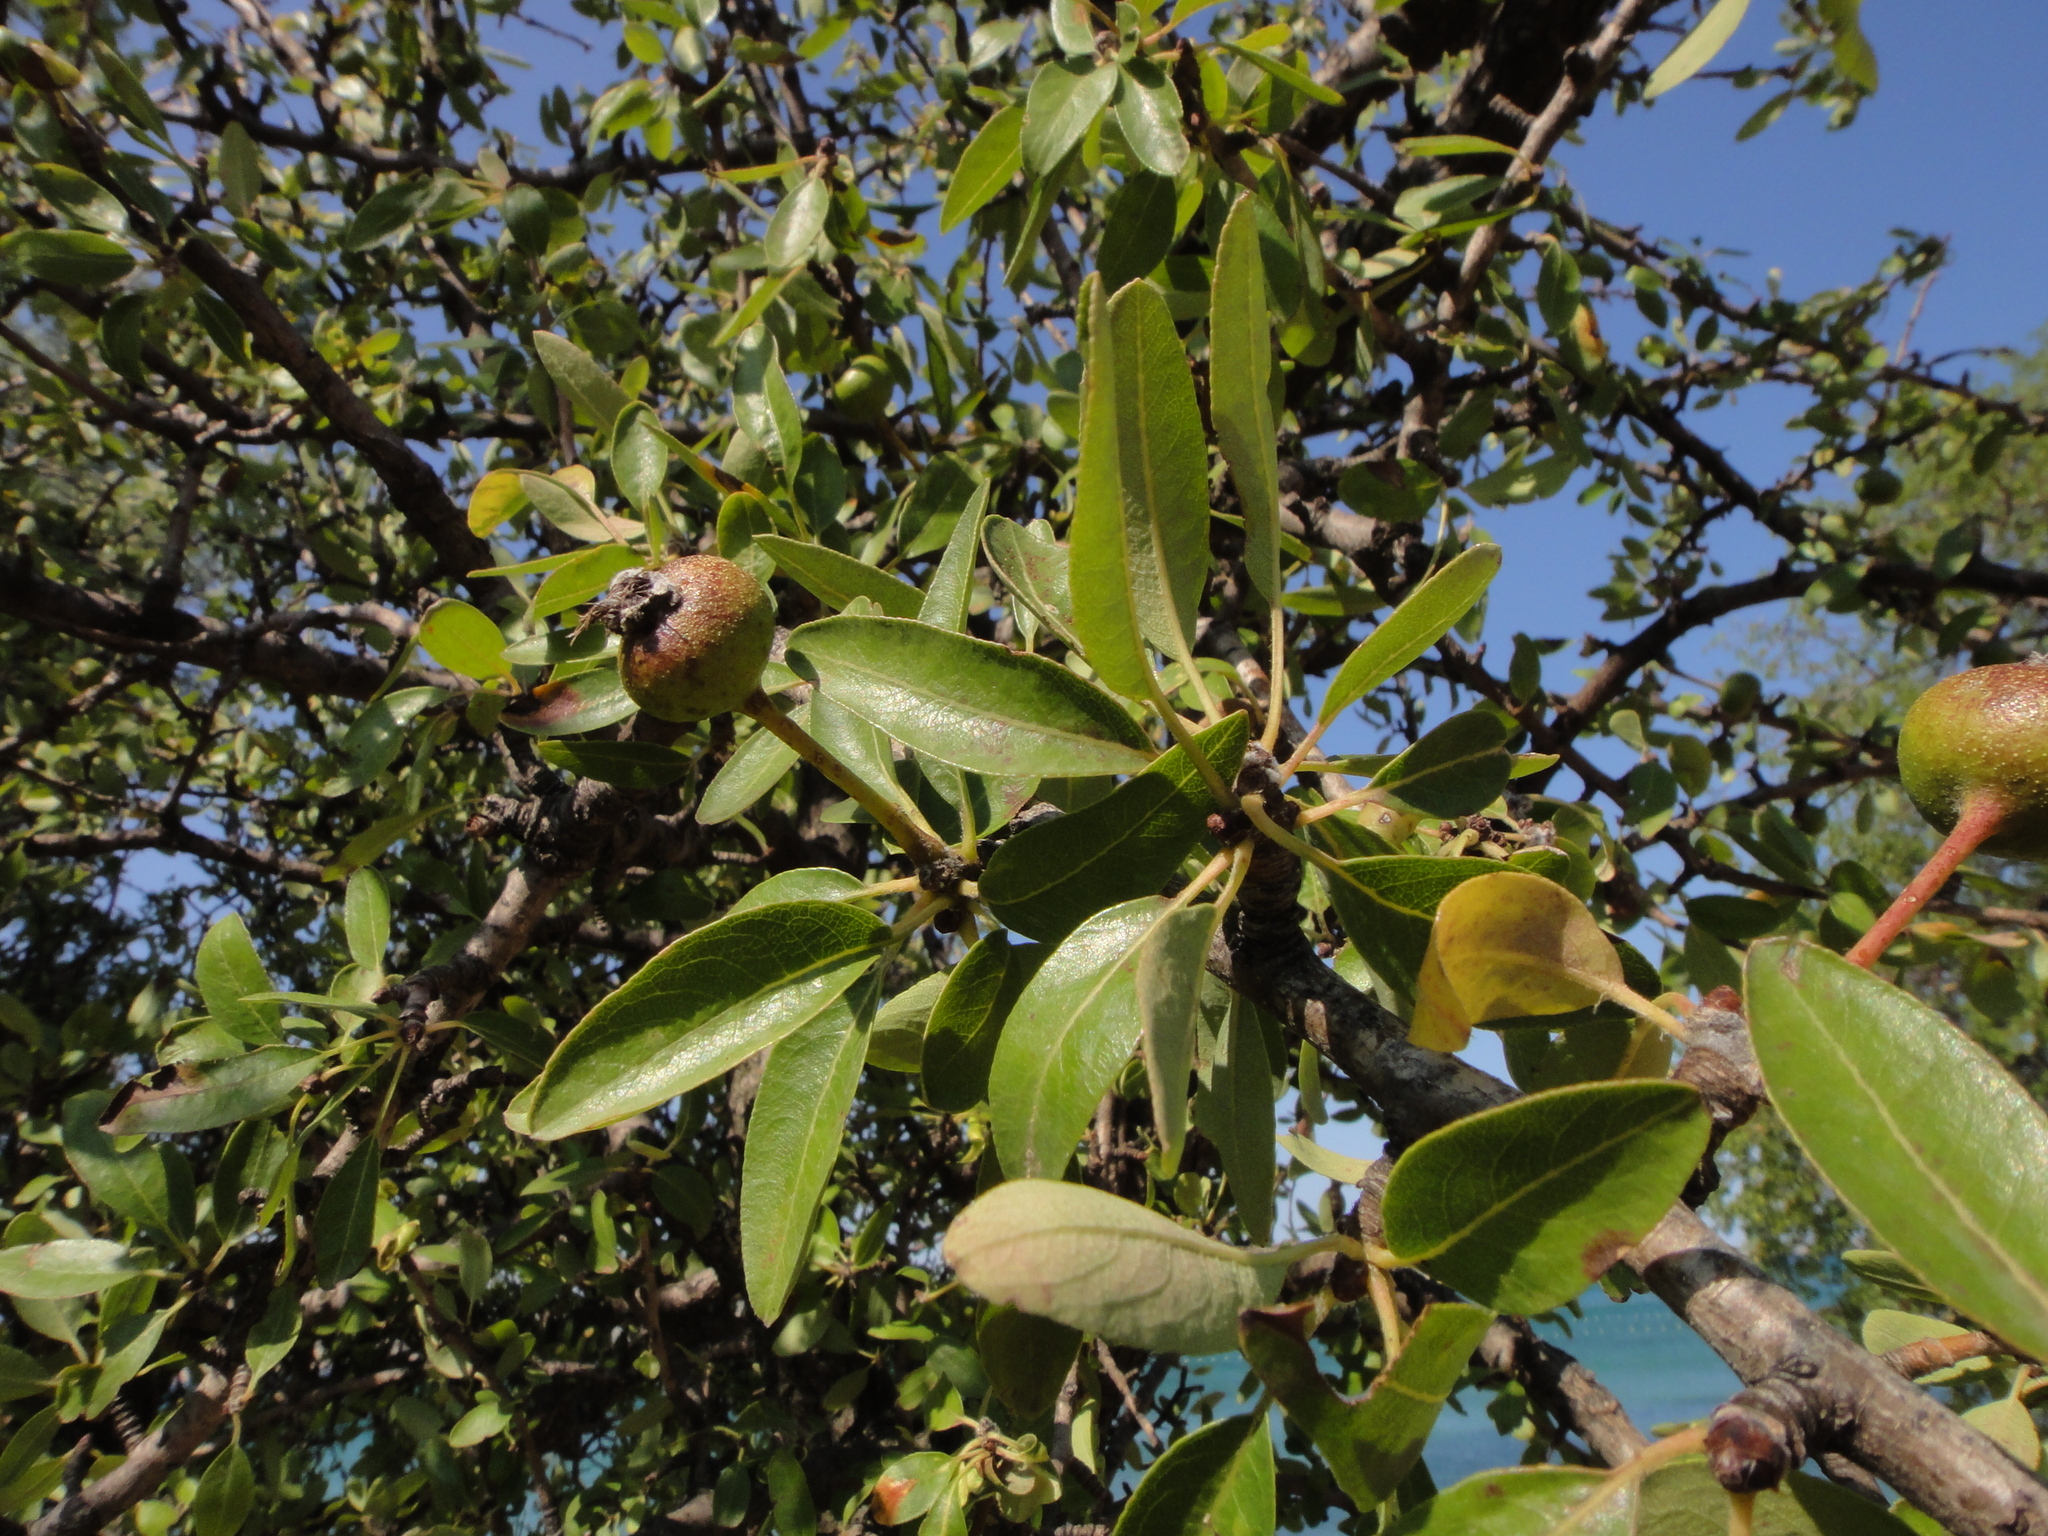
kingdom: Plantae
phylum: Tracheophyta
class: Magnoliopsida
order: Rosales
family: Rosaceae
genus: Pyrus
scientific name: Pyrus spinosa
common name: Almond-leaf pear
